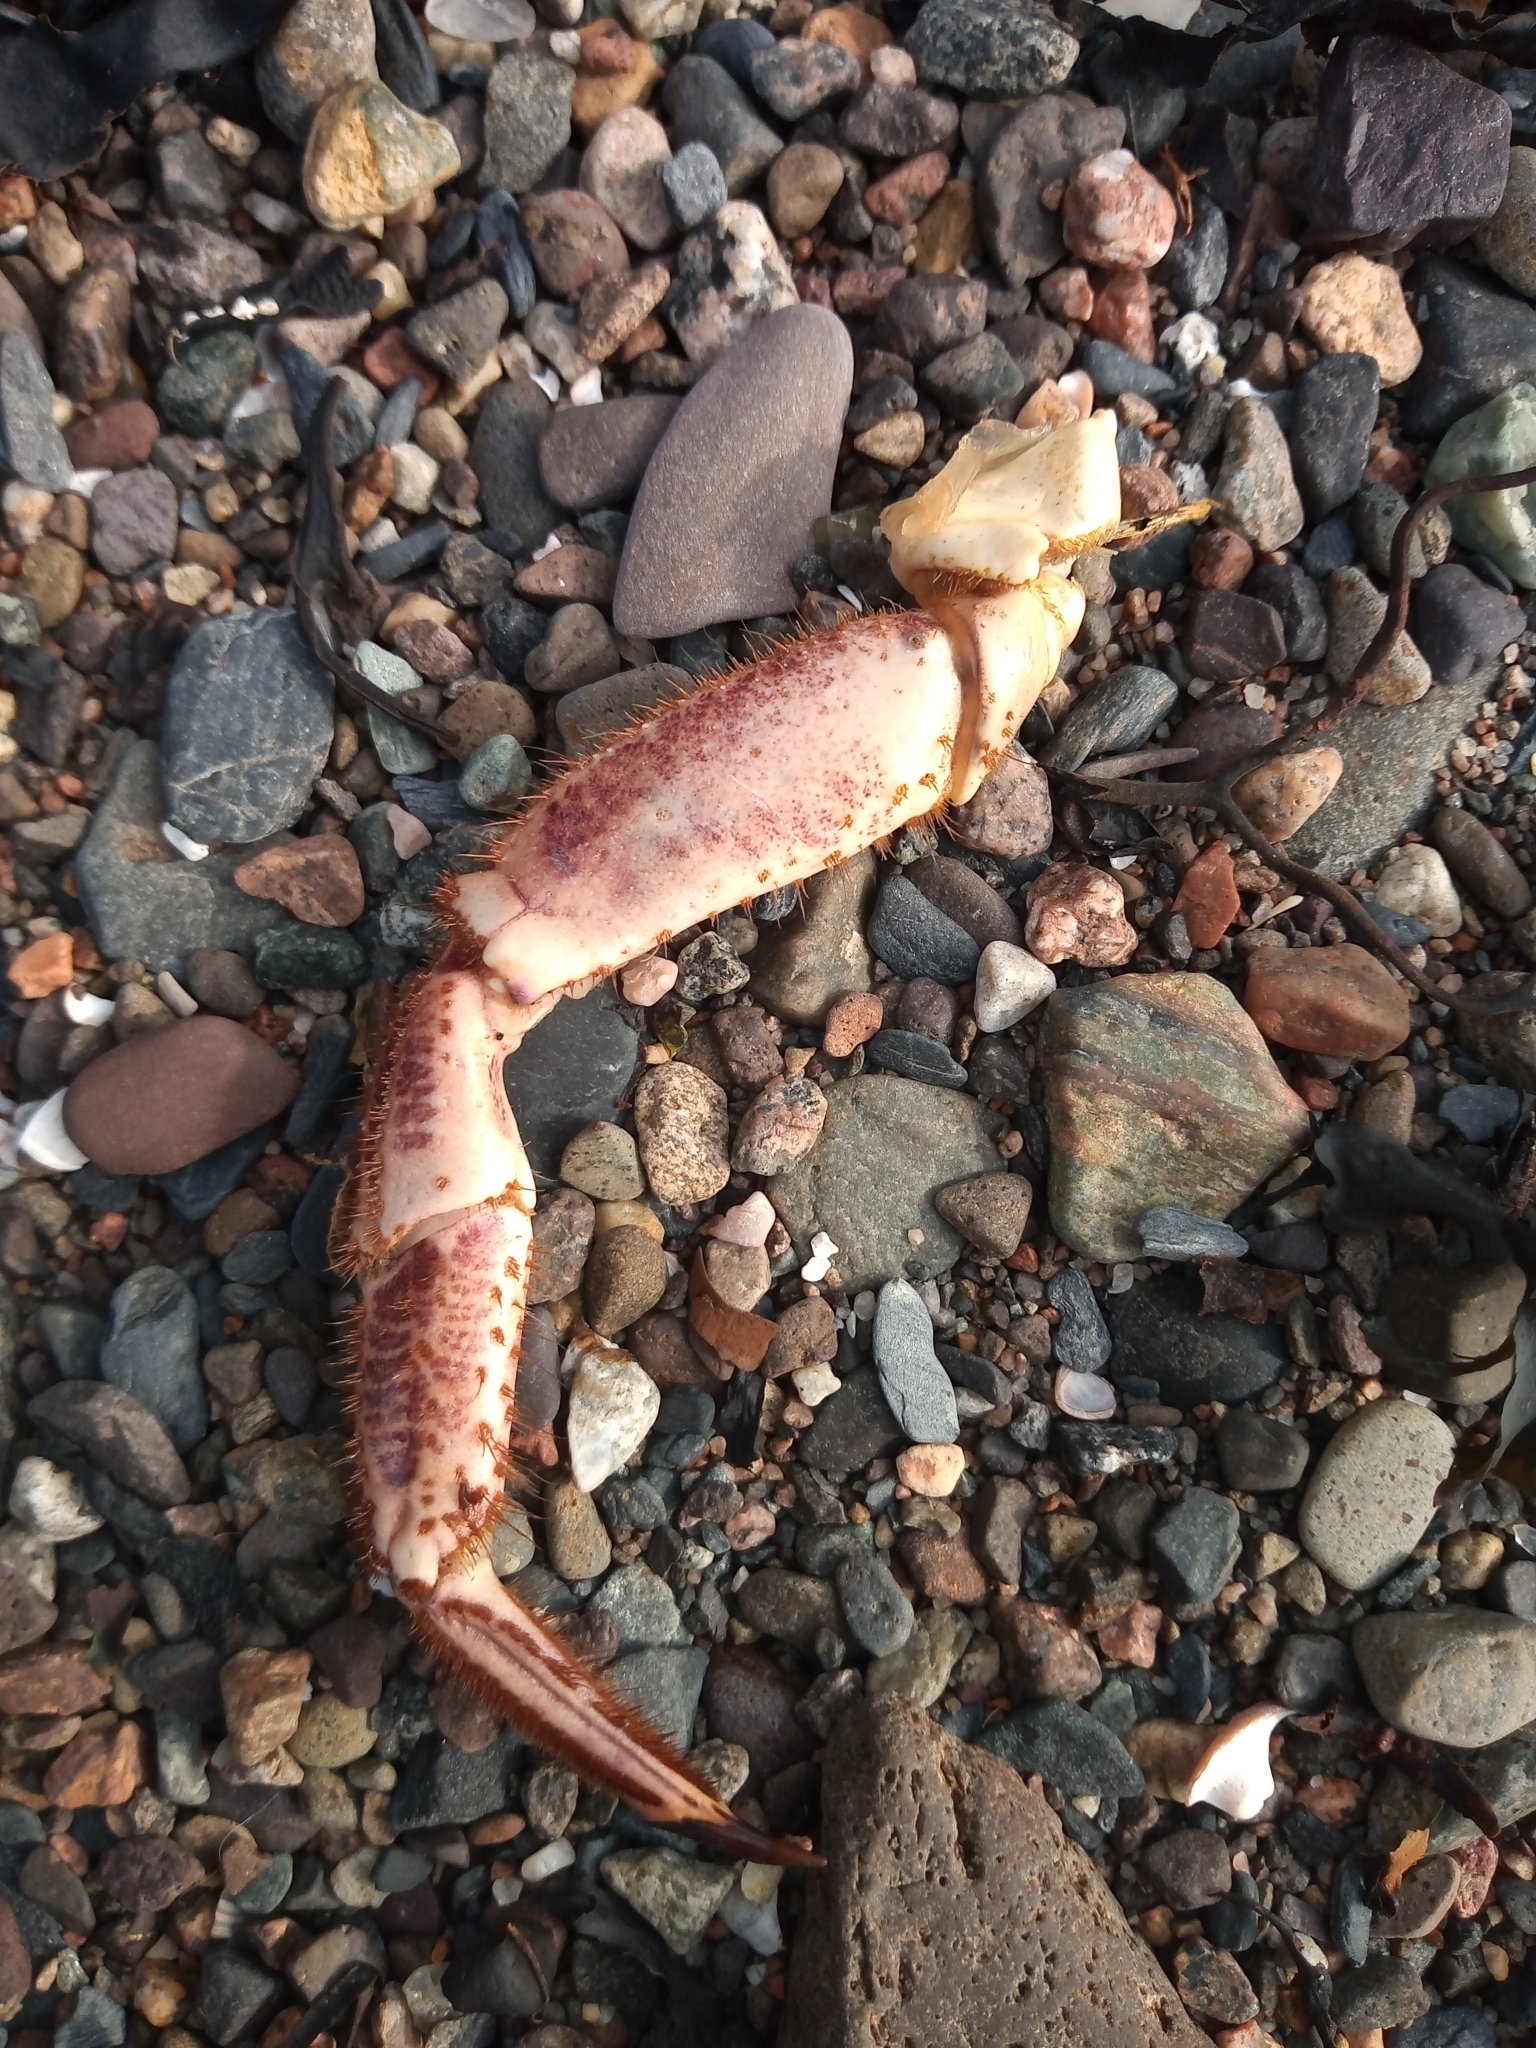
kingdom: Animalia
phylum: Arthropoda
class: Malacostraca
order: Decapoda
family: Cancridae
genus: Cancer
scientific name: Cancer pagurus
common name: Edible crab
